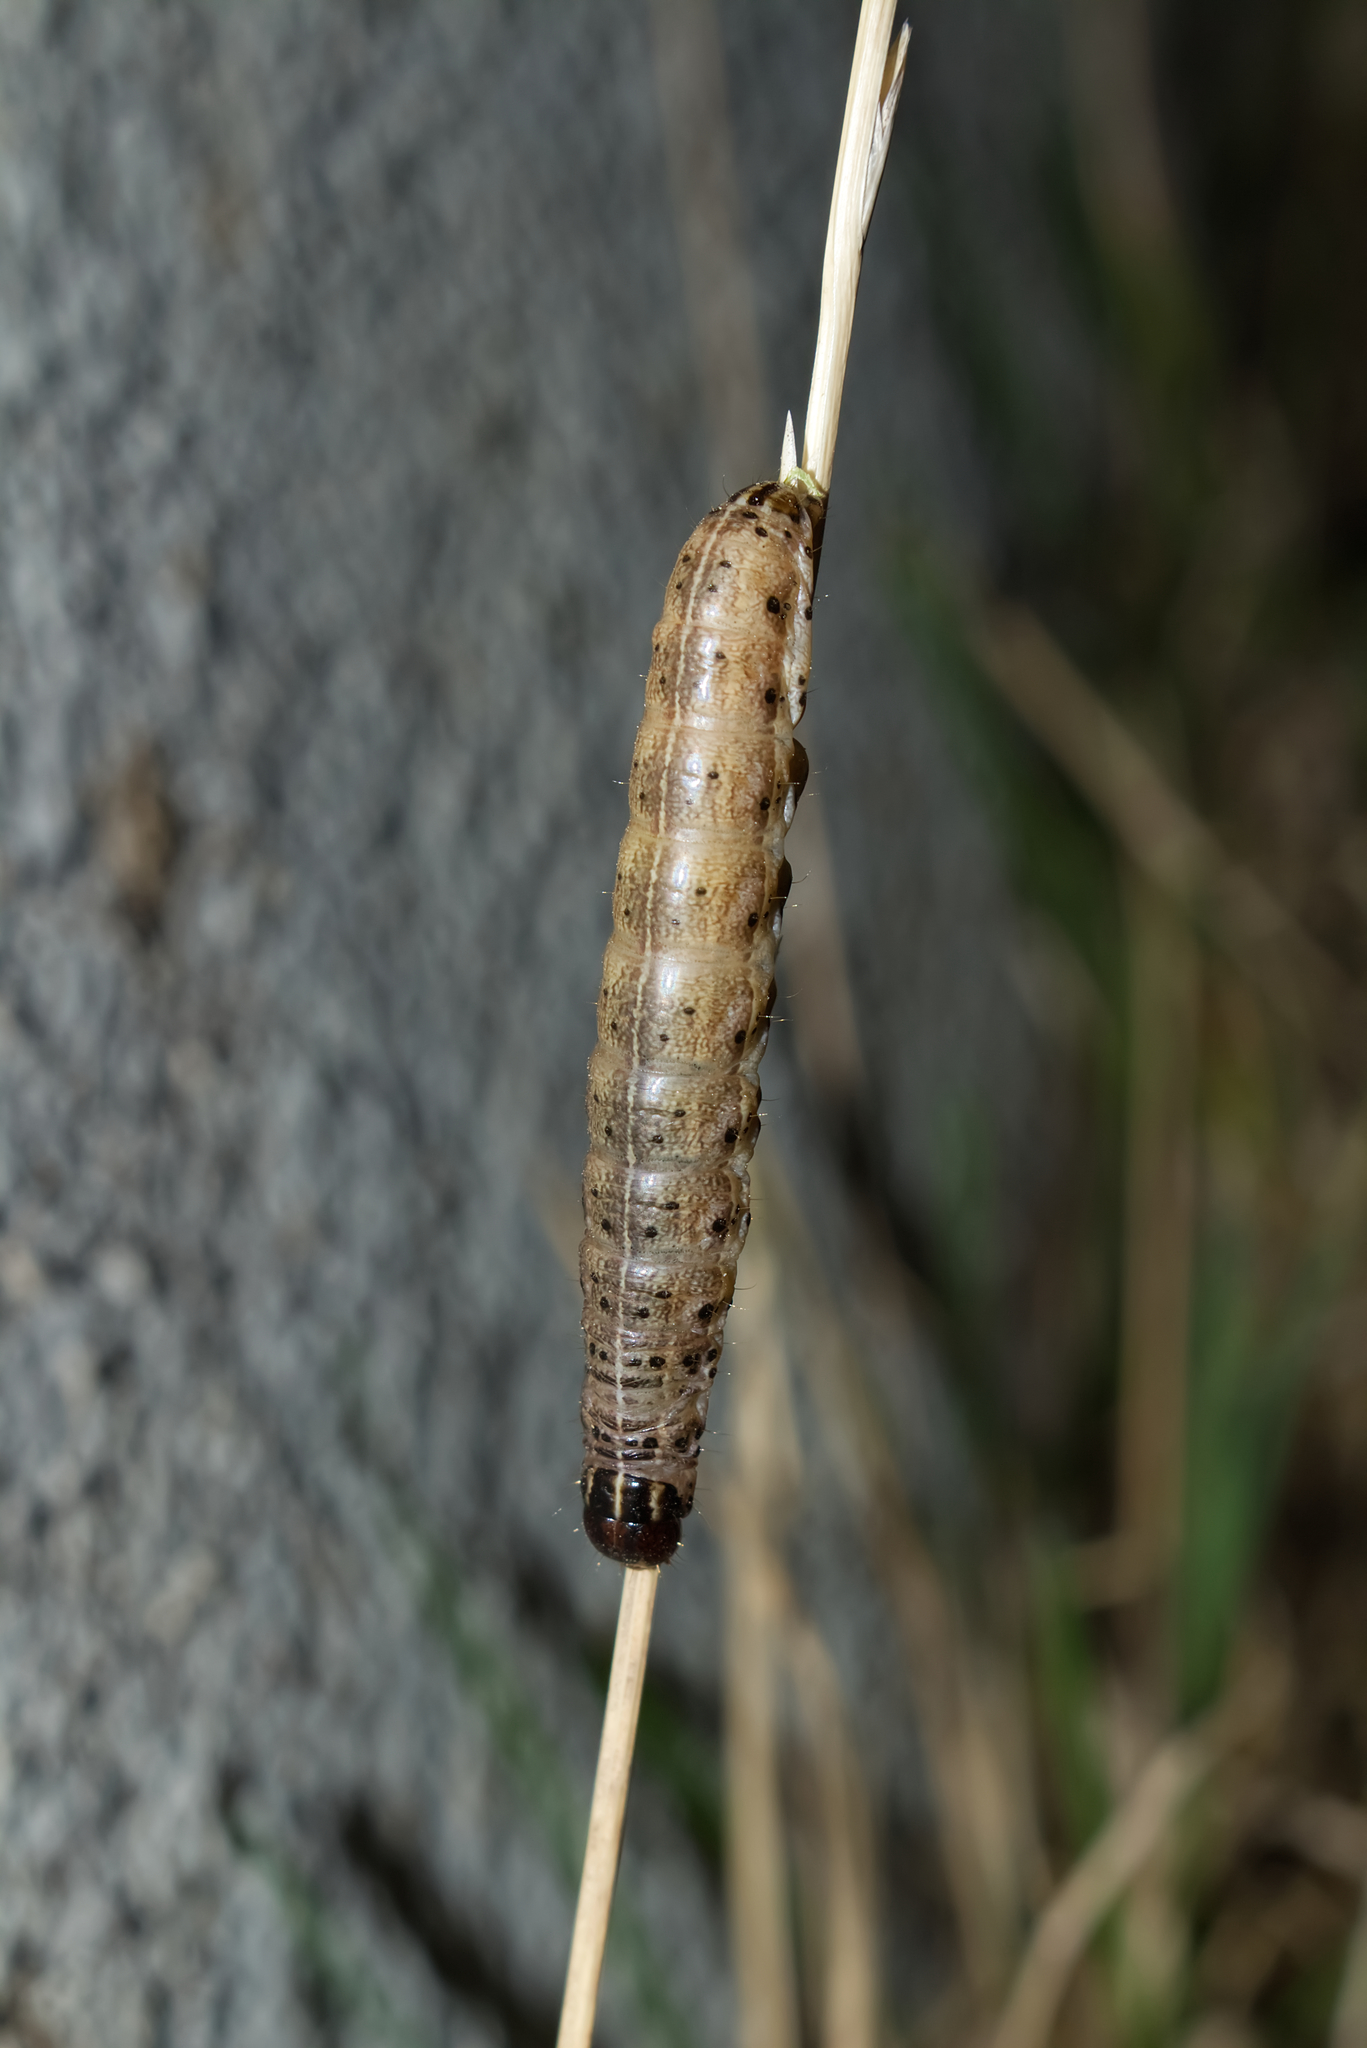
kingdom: Animalia
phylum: Arthropoda
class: Insecta
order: Lepidoptera
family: Noctuidae
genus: Apamea
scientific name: Apamea crenata
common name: Clouded-bordered brindle
